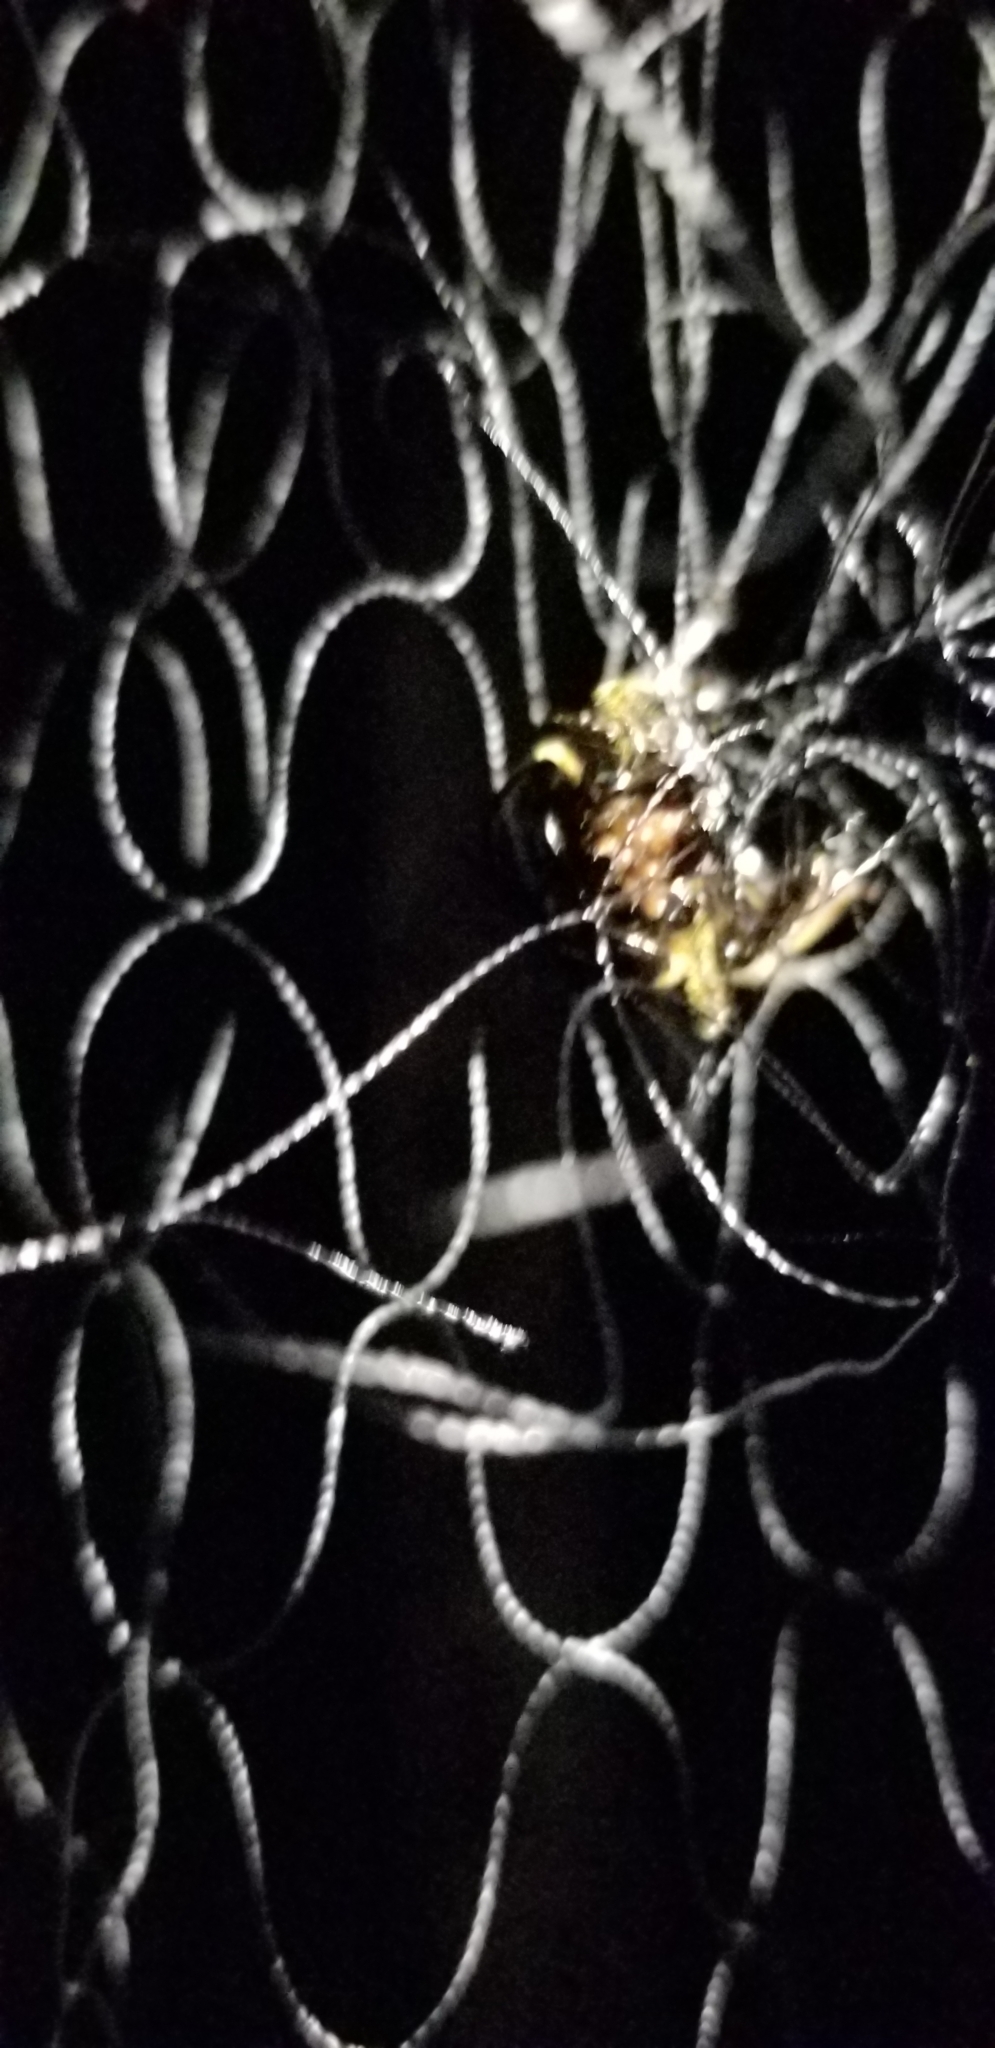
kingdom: Animalia
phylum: Arthropoda
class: Insecta
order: Coleoptera
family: Passalidae
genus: Odontotaenius
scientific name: Odontotaenius disjunctus
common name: Patent leather beetle
